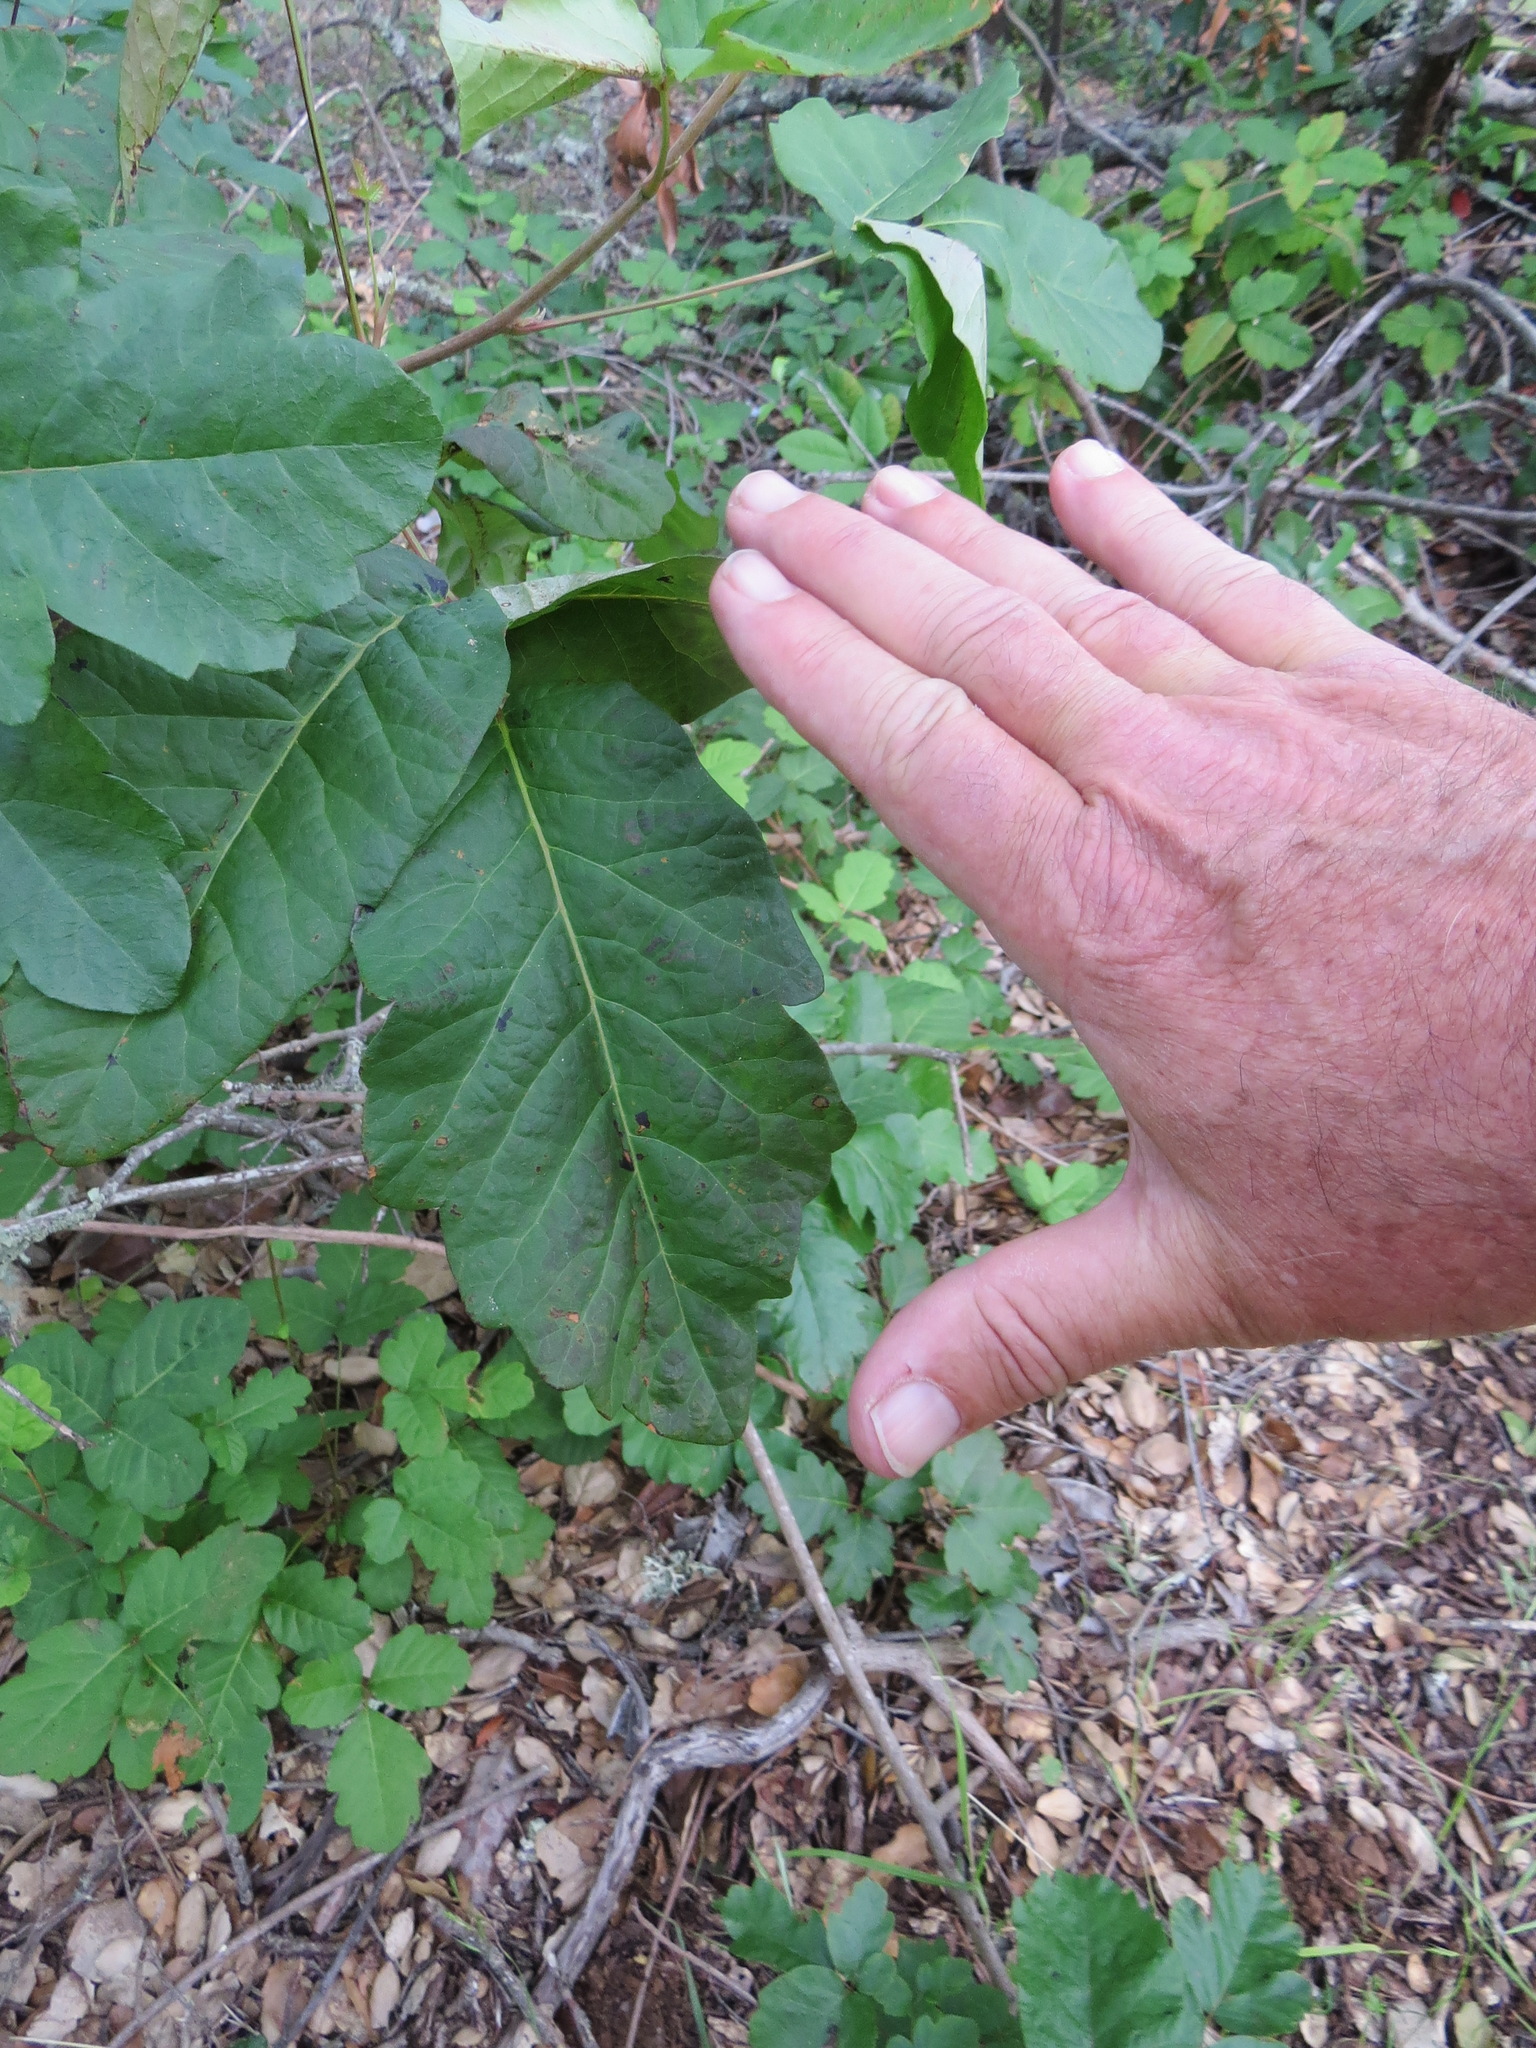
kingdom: Plantae
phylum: Tracheophyta
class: Magnoliopsida
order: Sapindales
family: Anacardiaceae
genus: Toxicodendron
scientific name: Toxicodendron diversilobum
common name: Pacific poison-oak
